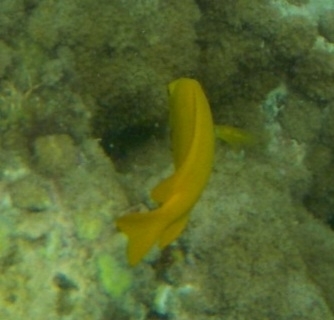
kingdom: Animalia
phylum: Chordata
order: Perciformes
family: Pomacentridae
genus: Pomacentrus
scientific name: Pomacentrus sulfureus
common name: Sulfur damsel
